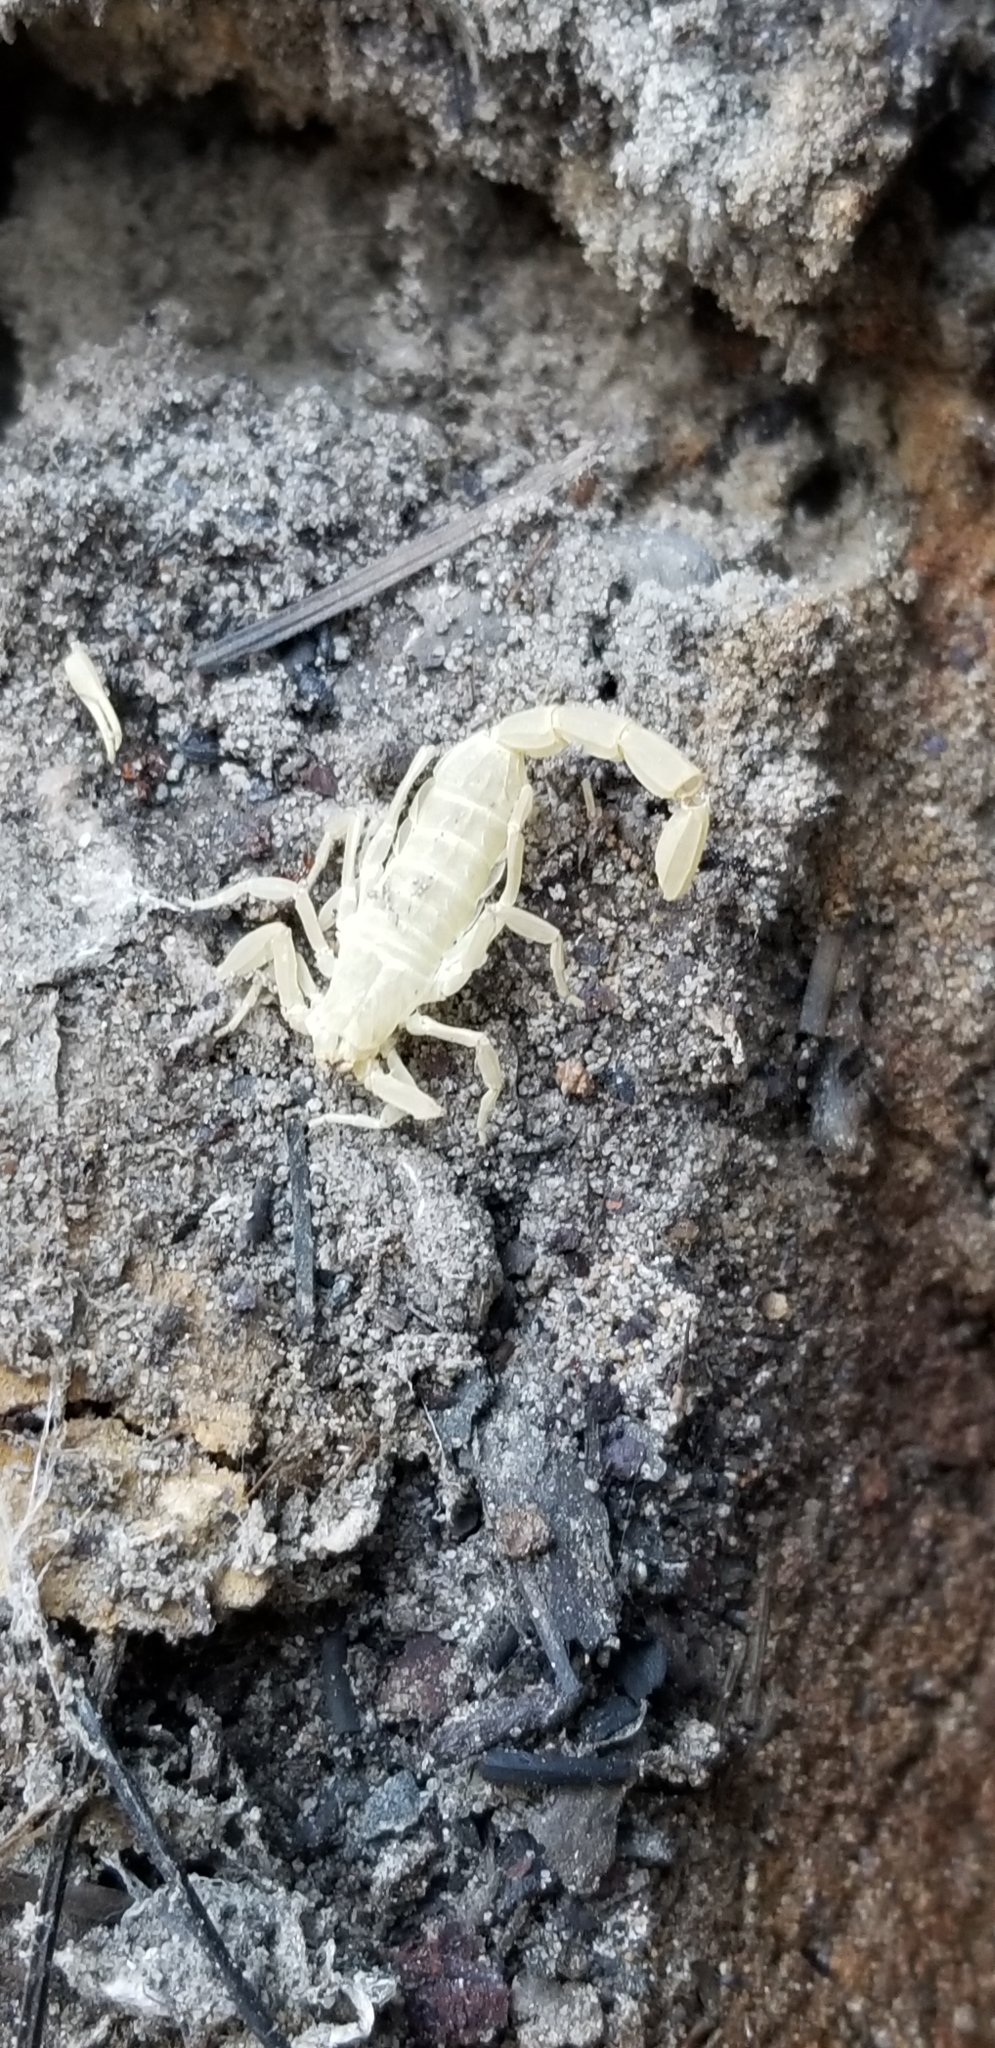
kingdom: Animalia
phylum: Arthropoda
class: Arachnida
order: Scorpiones
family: Buthidae
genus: Centruroides
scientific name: Centruroides vittatus
